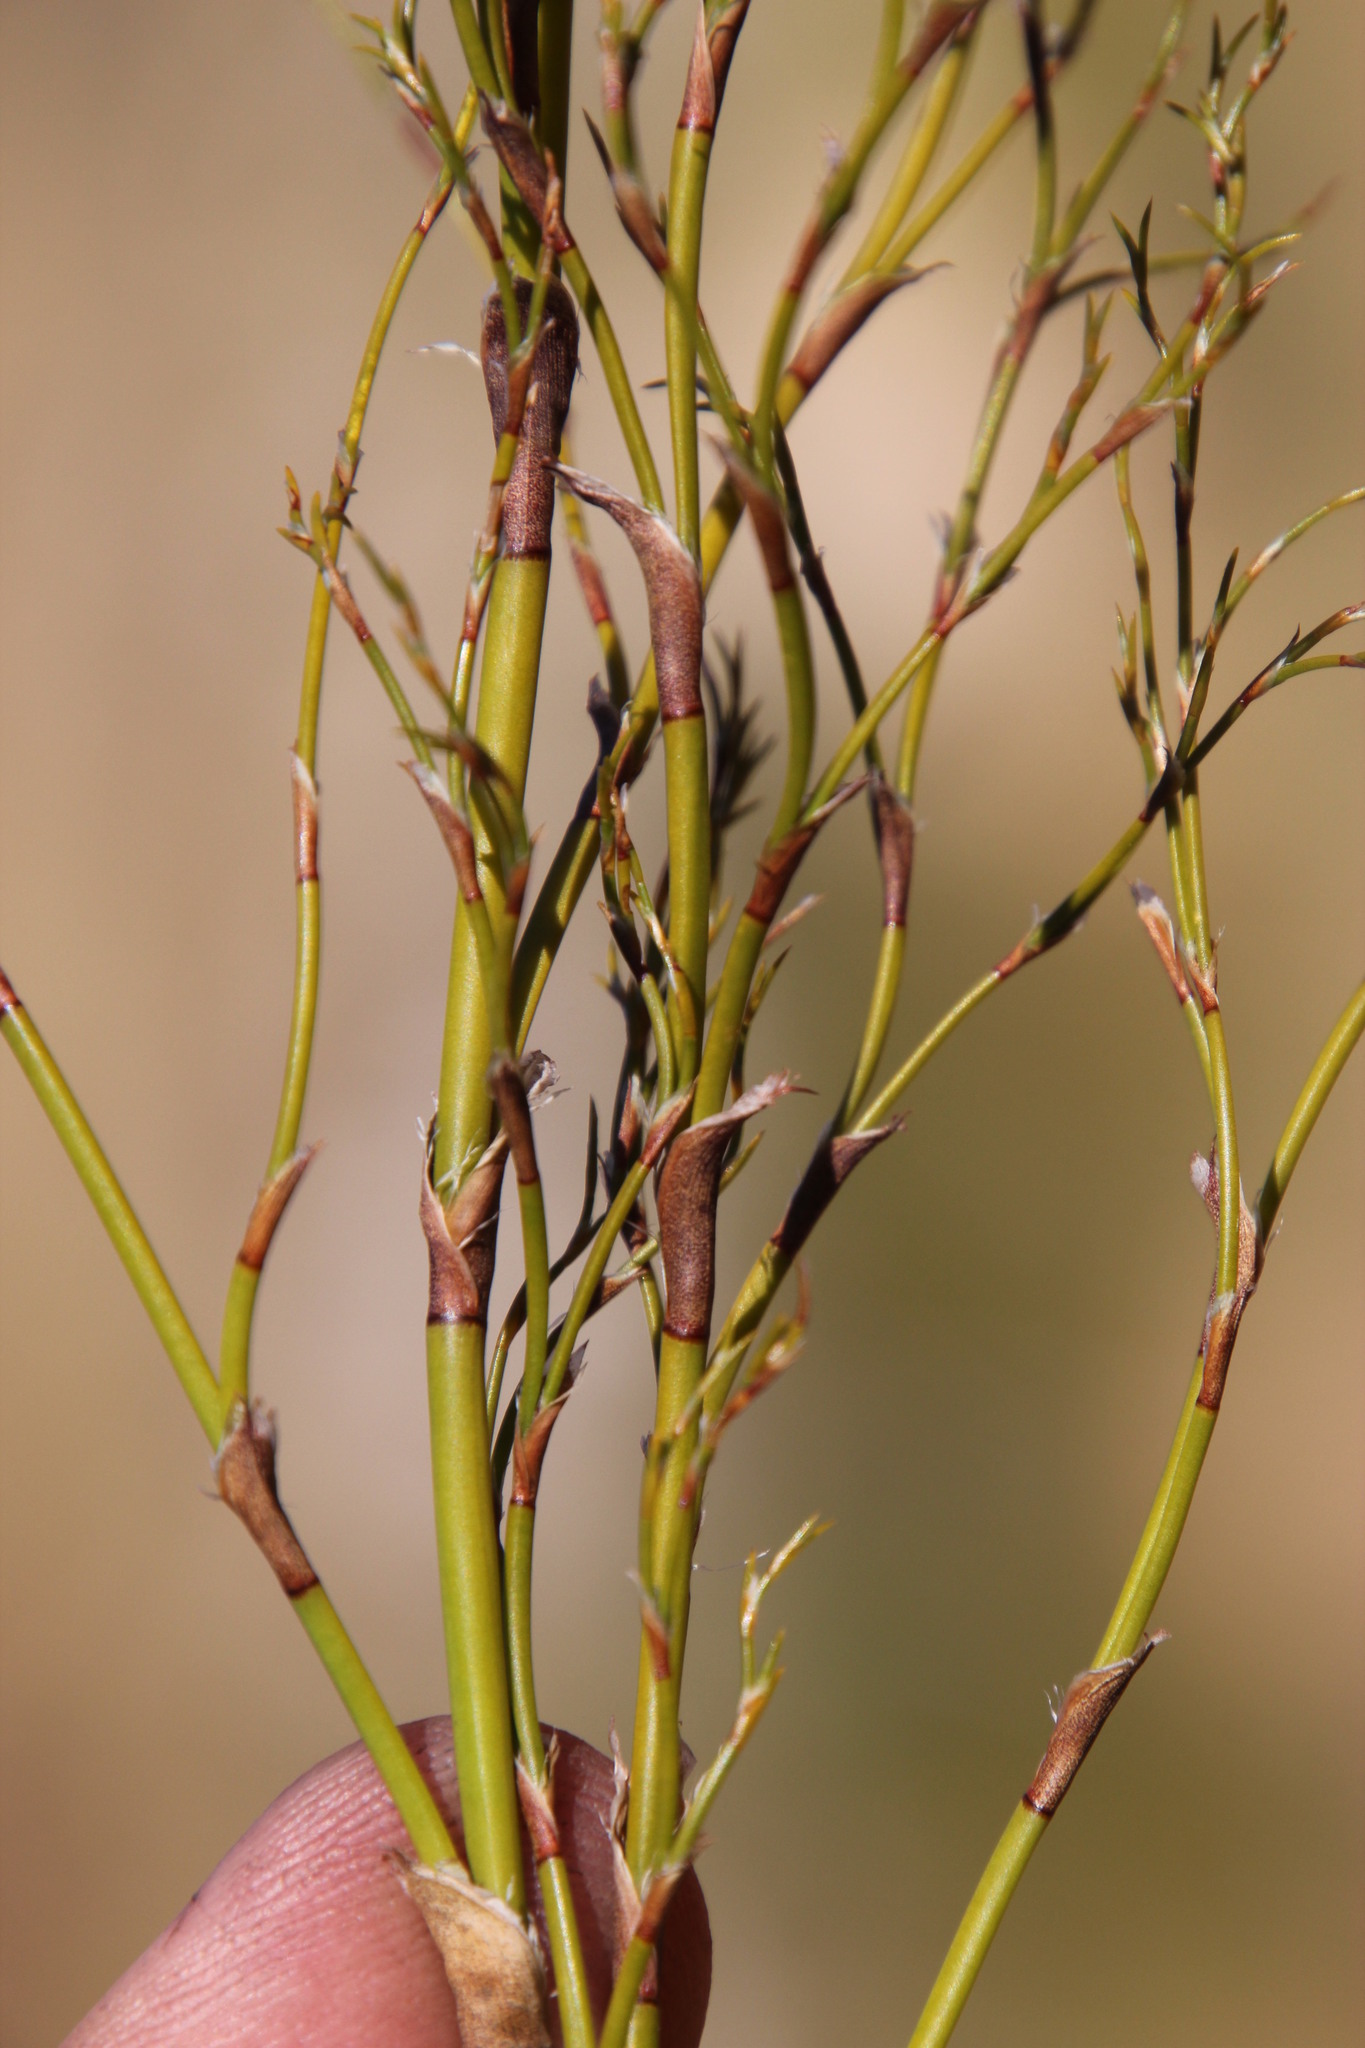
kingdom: Plantae
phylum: Tracheophyta
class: Liliopsida
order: Poales
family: Restionaceae
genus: Restio
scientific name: Restio gaudichaudianus
